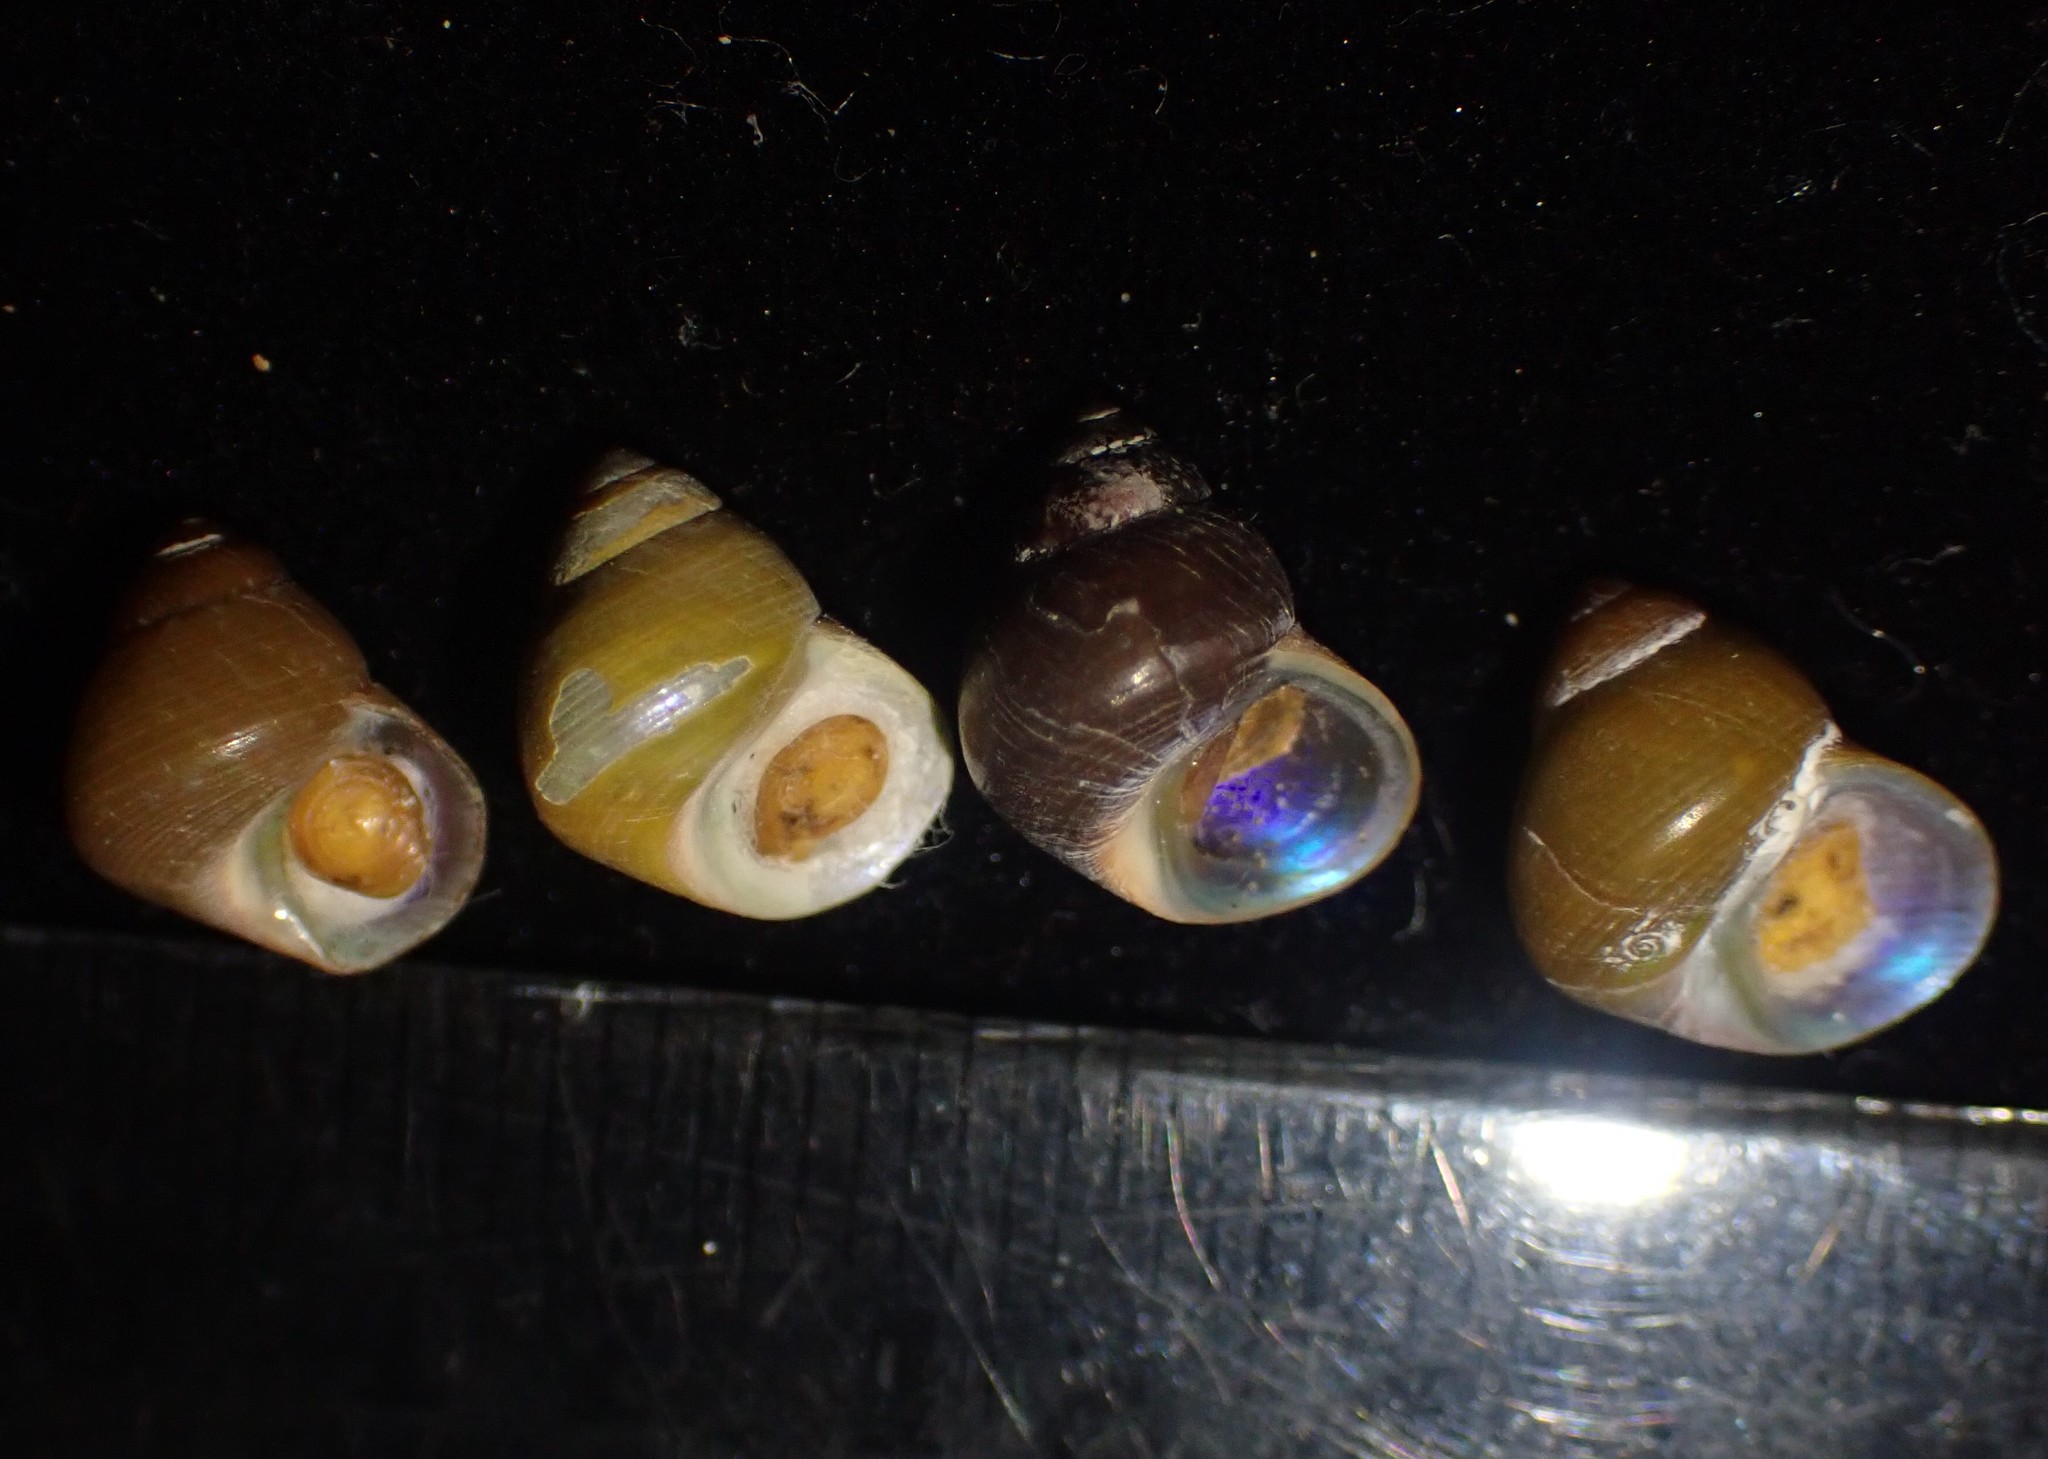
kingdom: Animalia
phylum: Mollusca
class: Gastropoda
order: Trochida
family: Trochidae
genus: Cantharidus
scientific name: Cantharidus dilatatus
